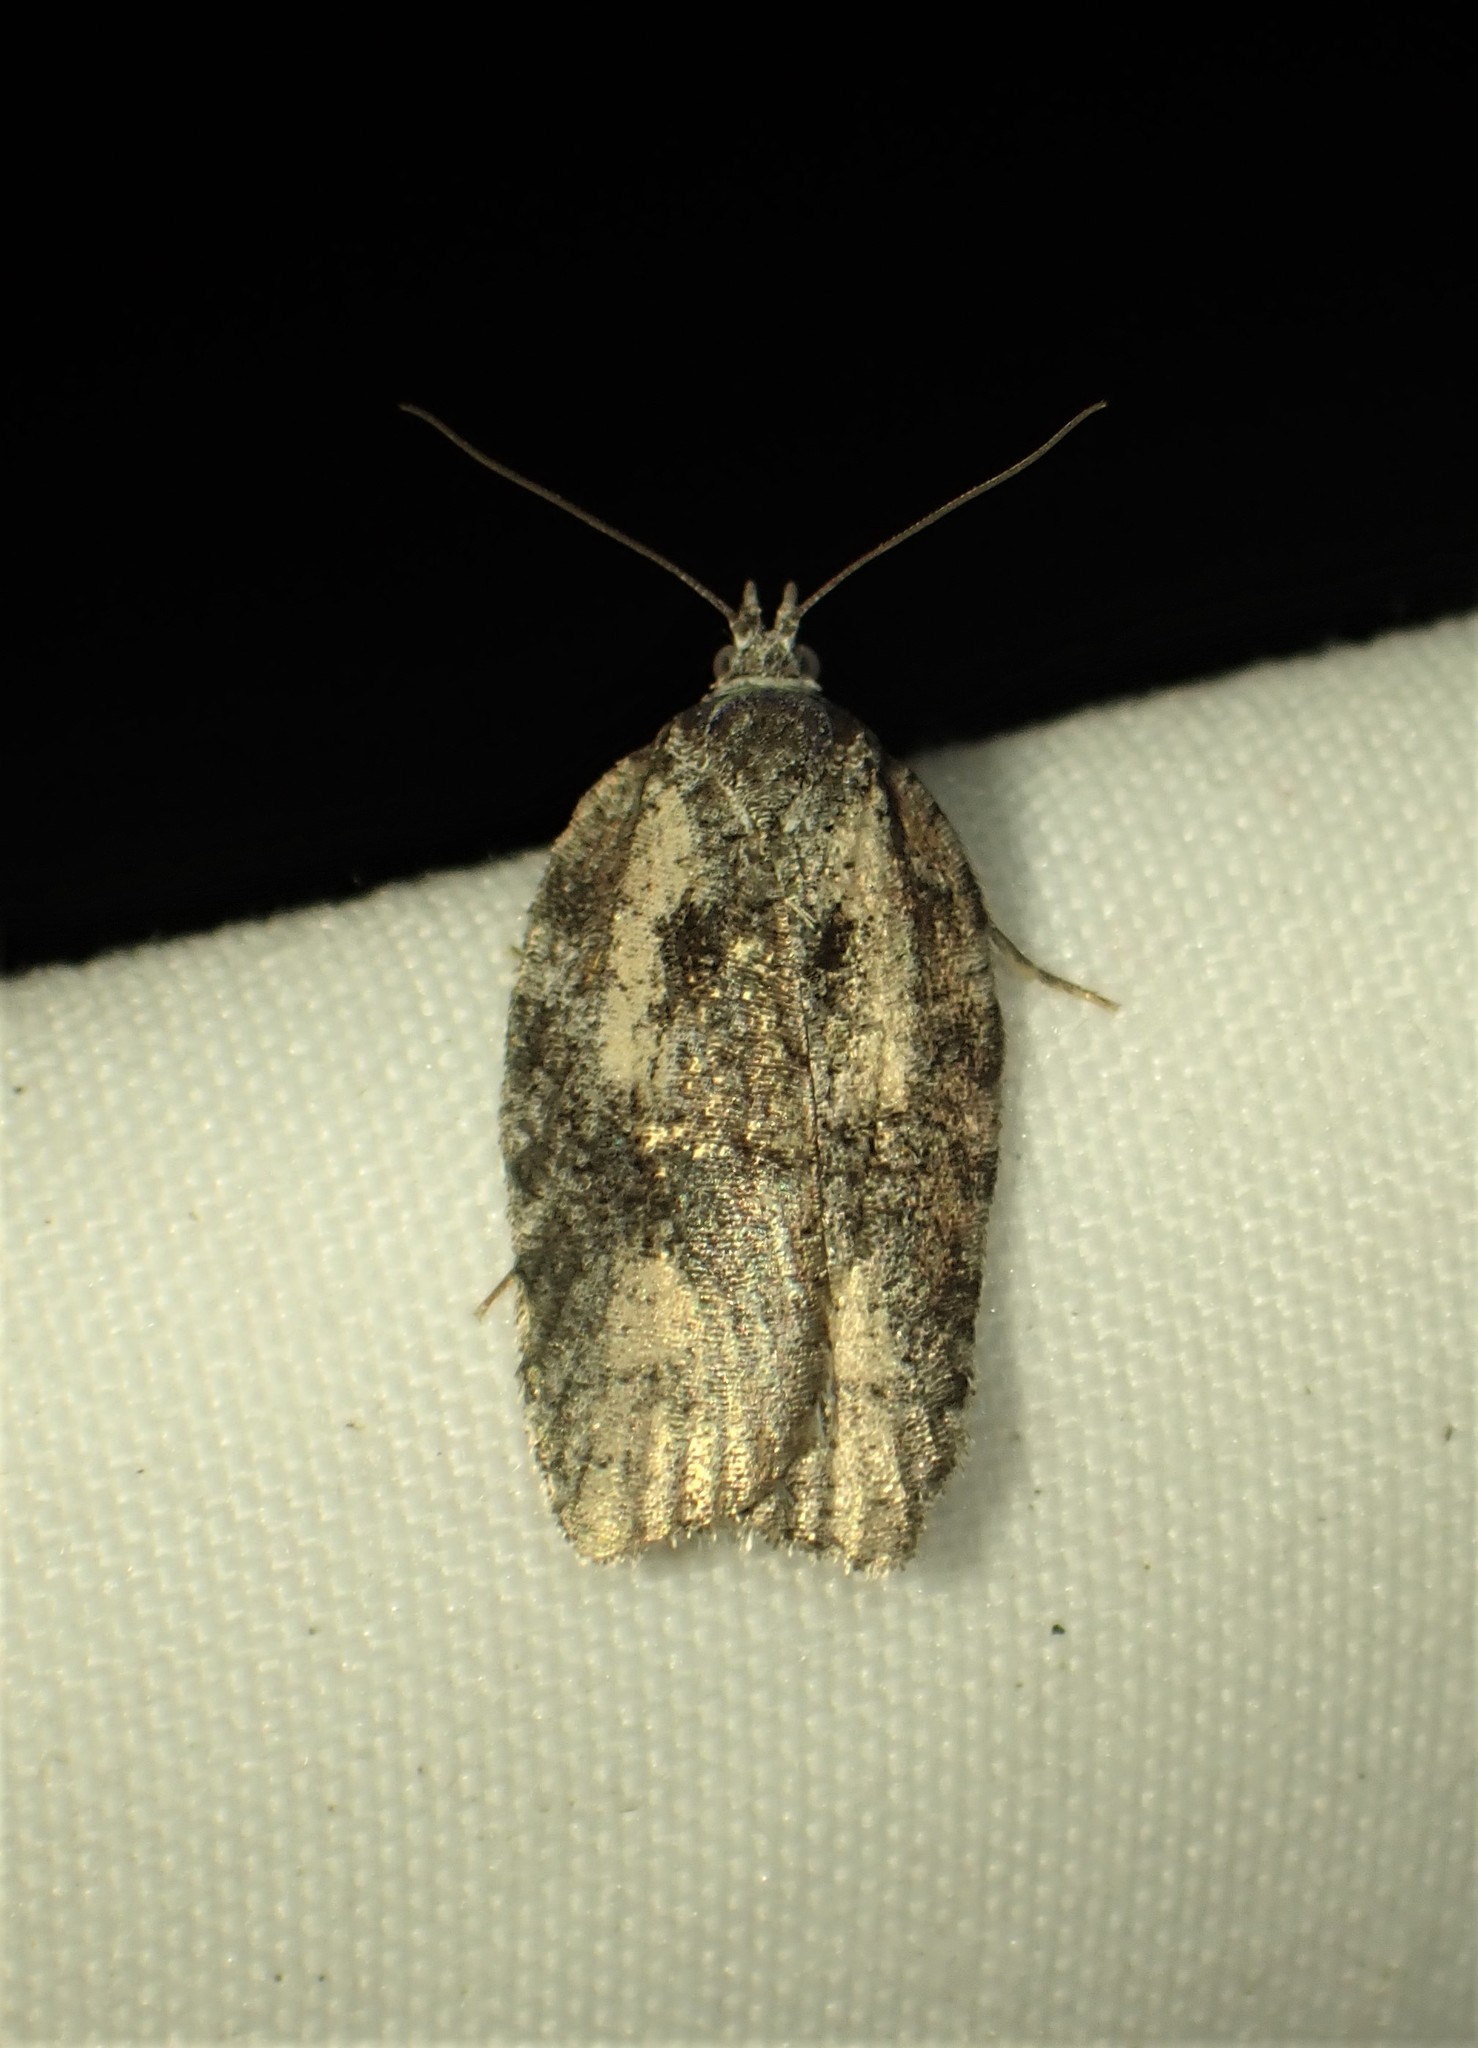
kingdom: Animalia
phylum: Arthropoda
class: Insecta
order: Lepidoptera
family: Tortricidae
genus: Acleris
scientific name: Acleris chalybeana
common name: Lesser maple leafroller
